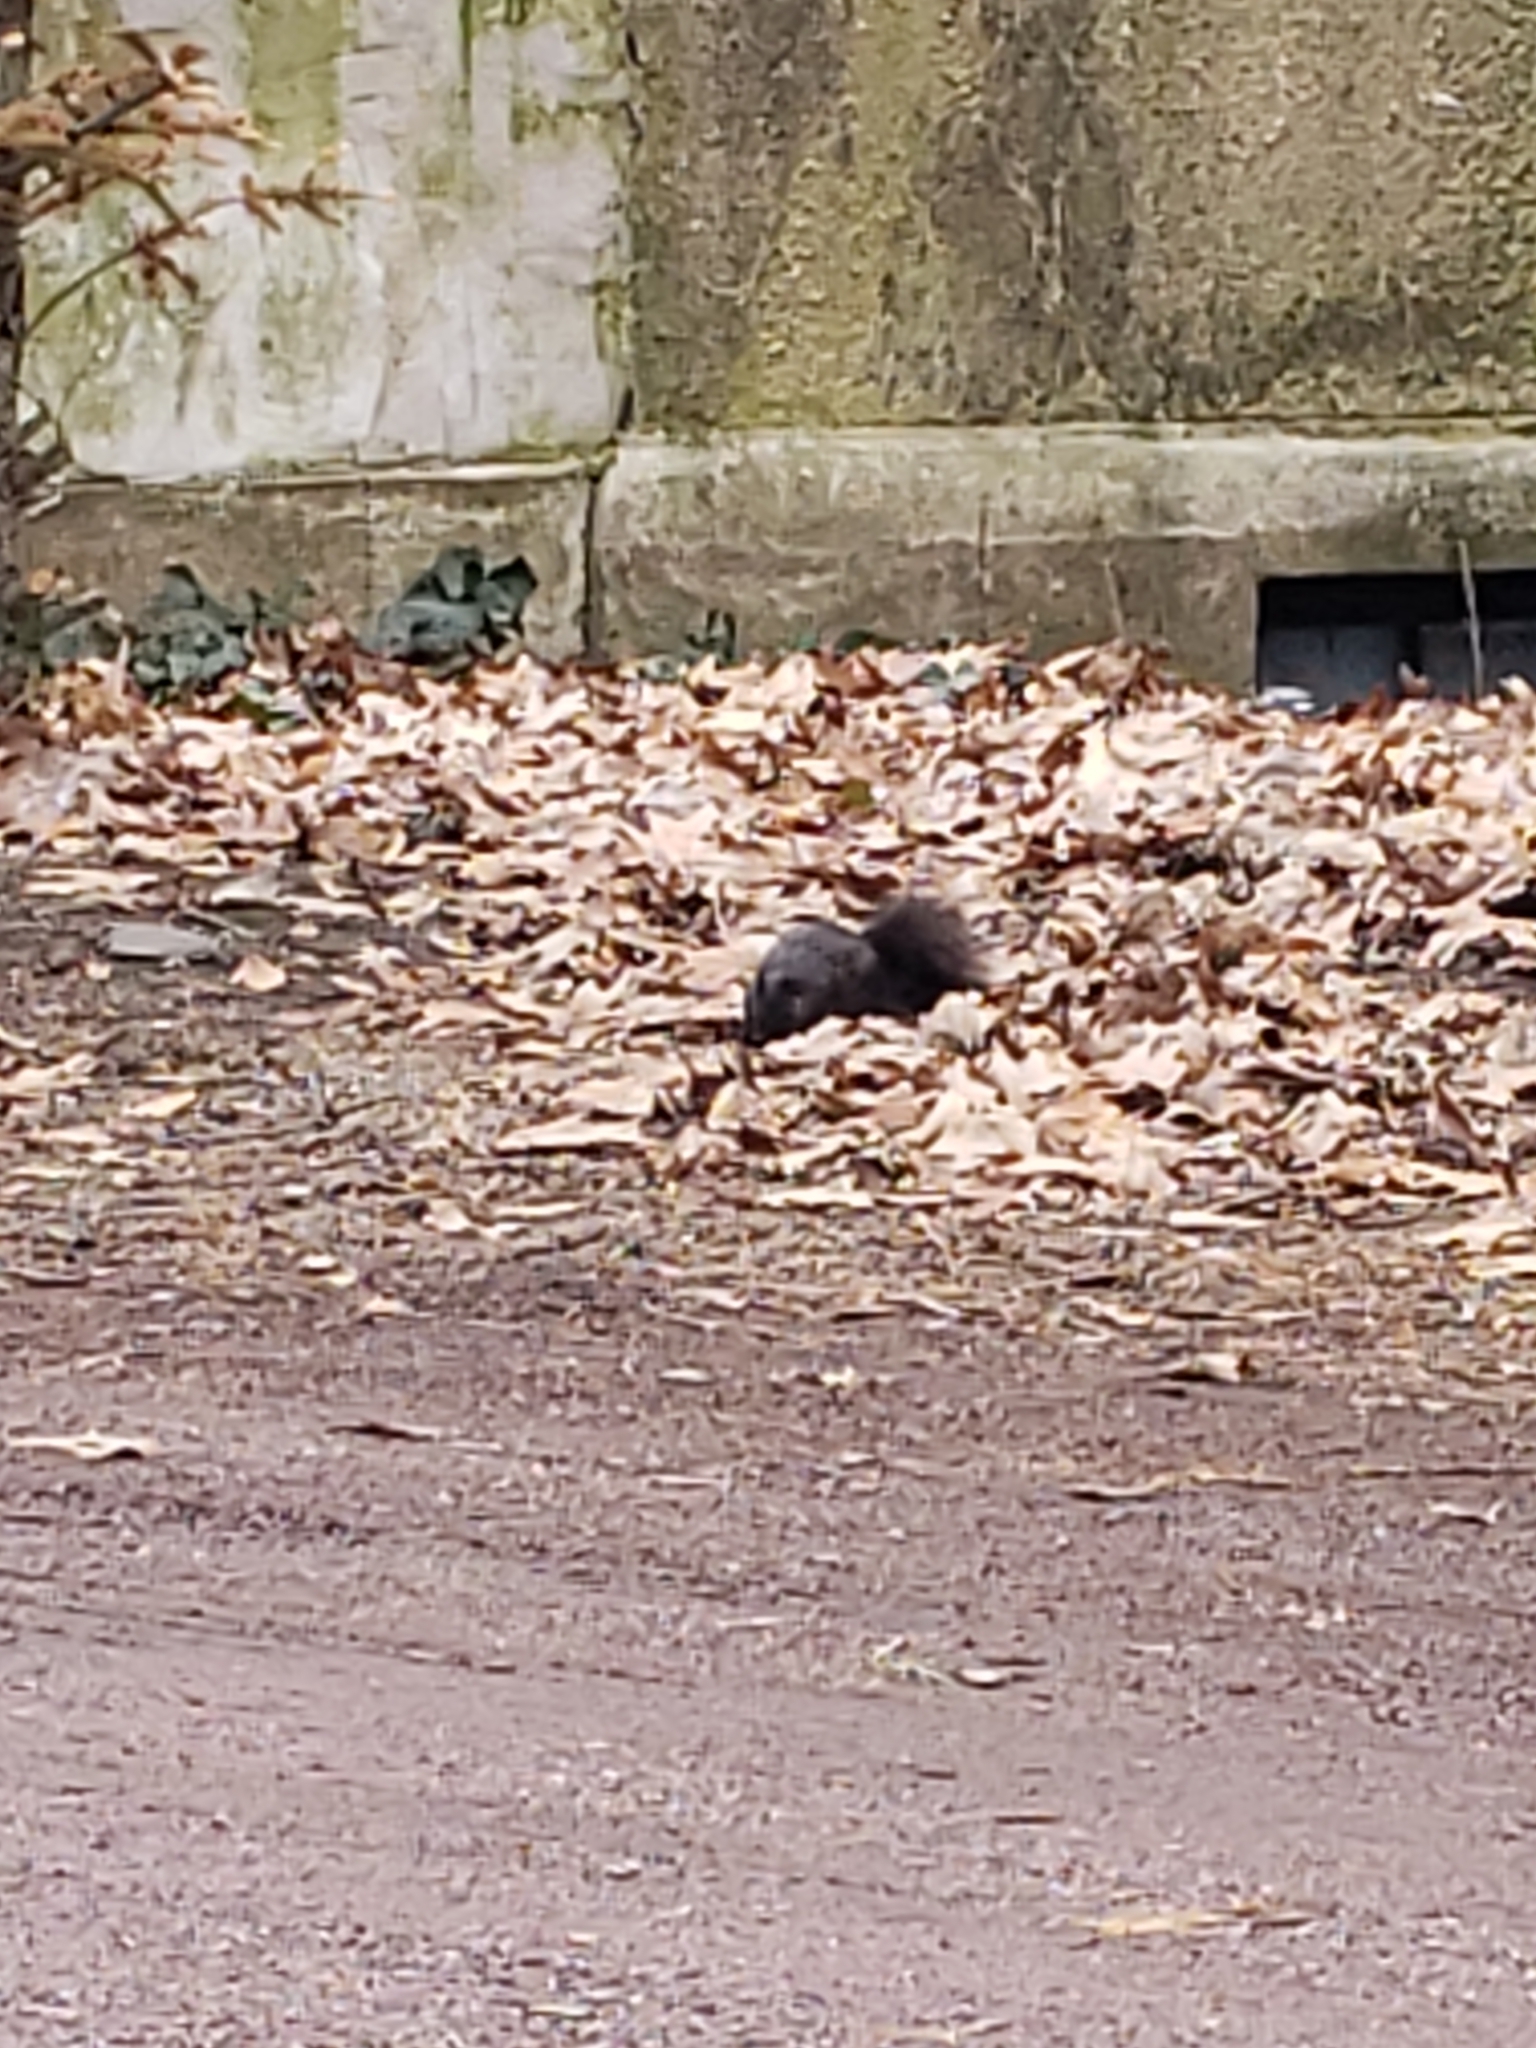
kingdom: Animalia
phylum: Chordata
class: Mammalia
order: Rodentia
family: Sciuridae
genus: Sciurus
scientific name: Sciurus carolinensis
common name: Eastern gray squirrel
